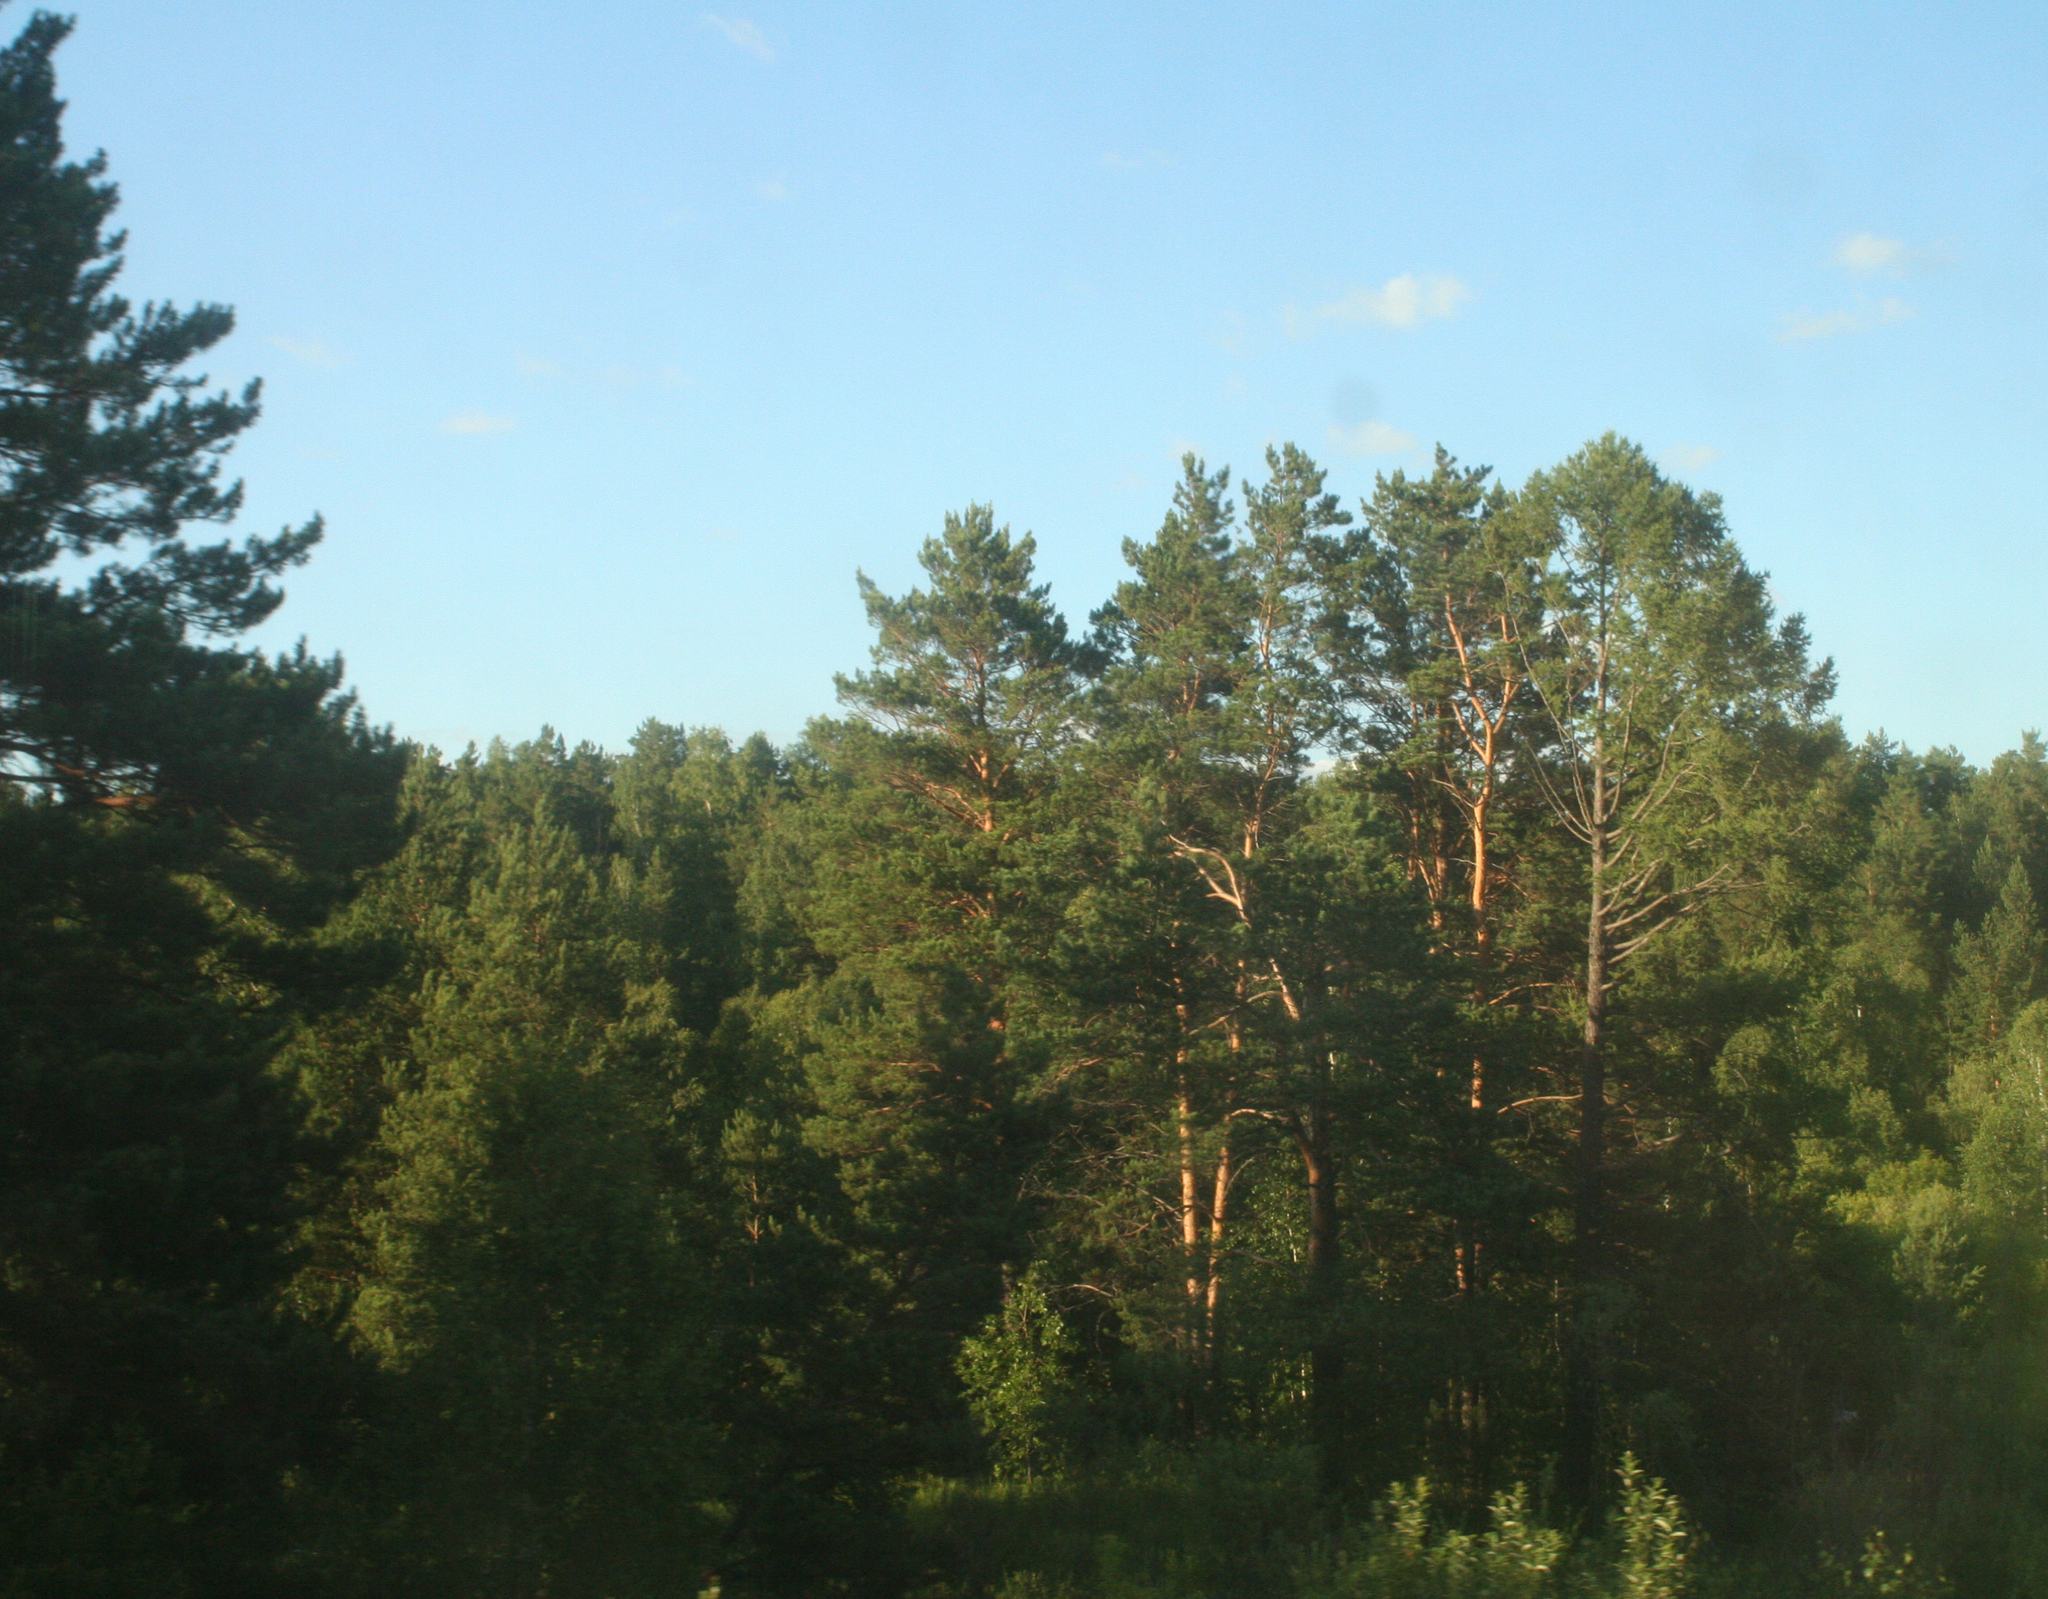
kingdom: Plantae
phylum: Tracheophyta
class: Pinopsida
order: Pinales
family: Pinaceae
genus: Pinus
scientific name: Pinus sylvestris
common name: Scots pine
